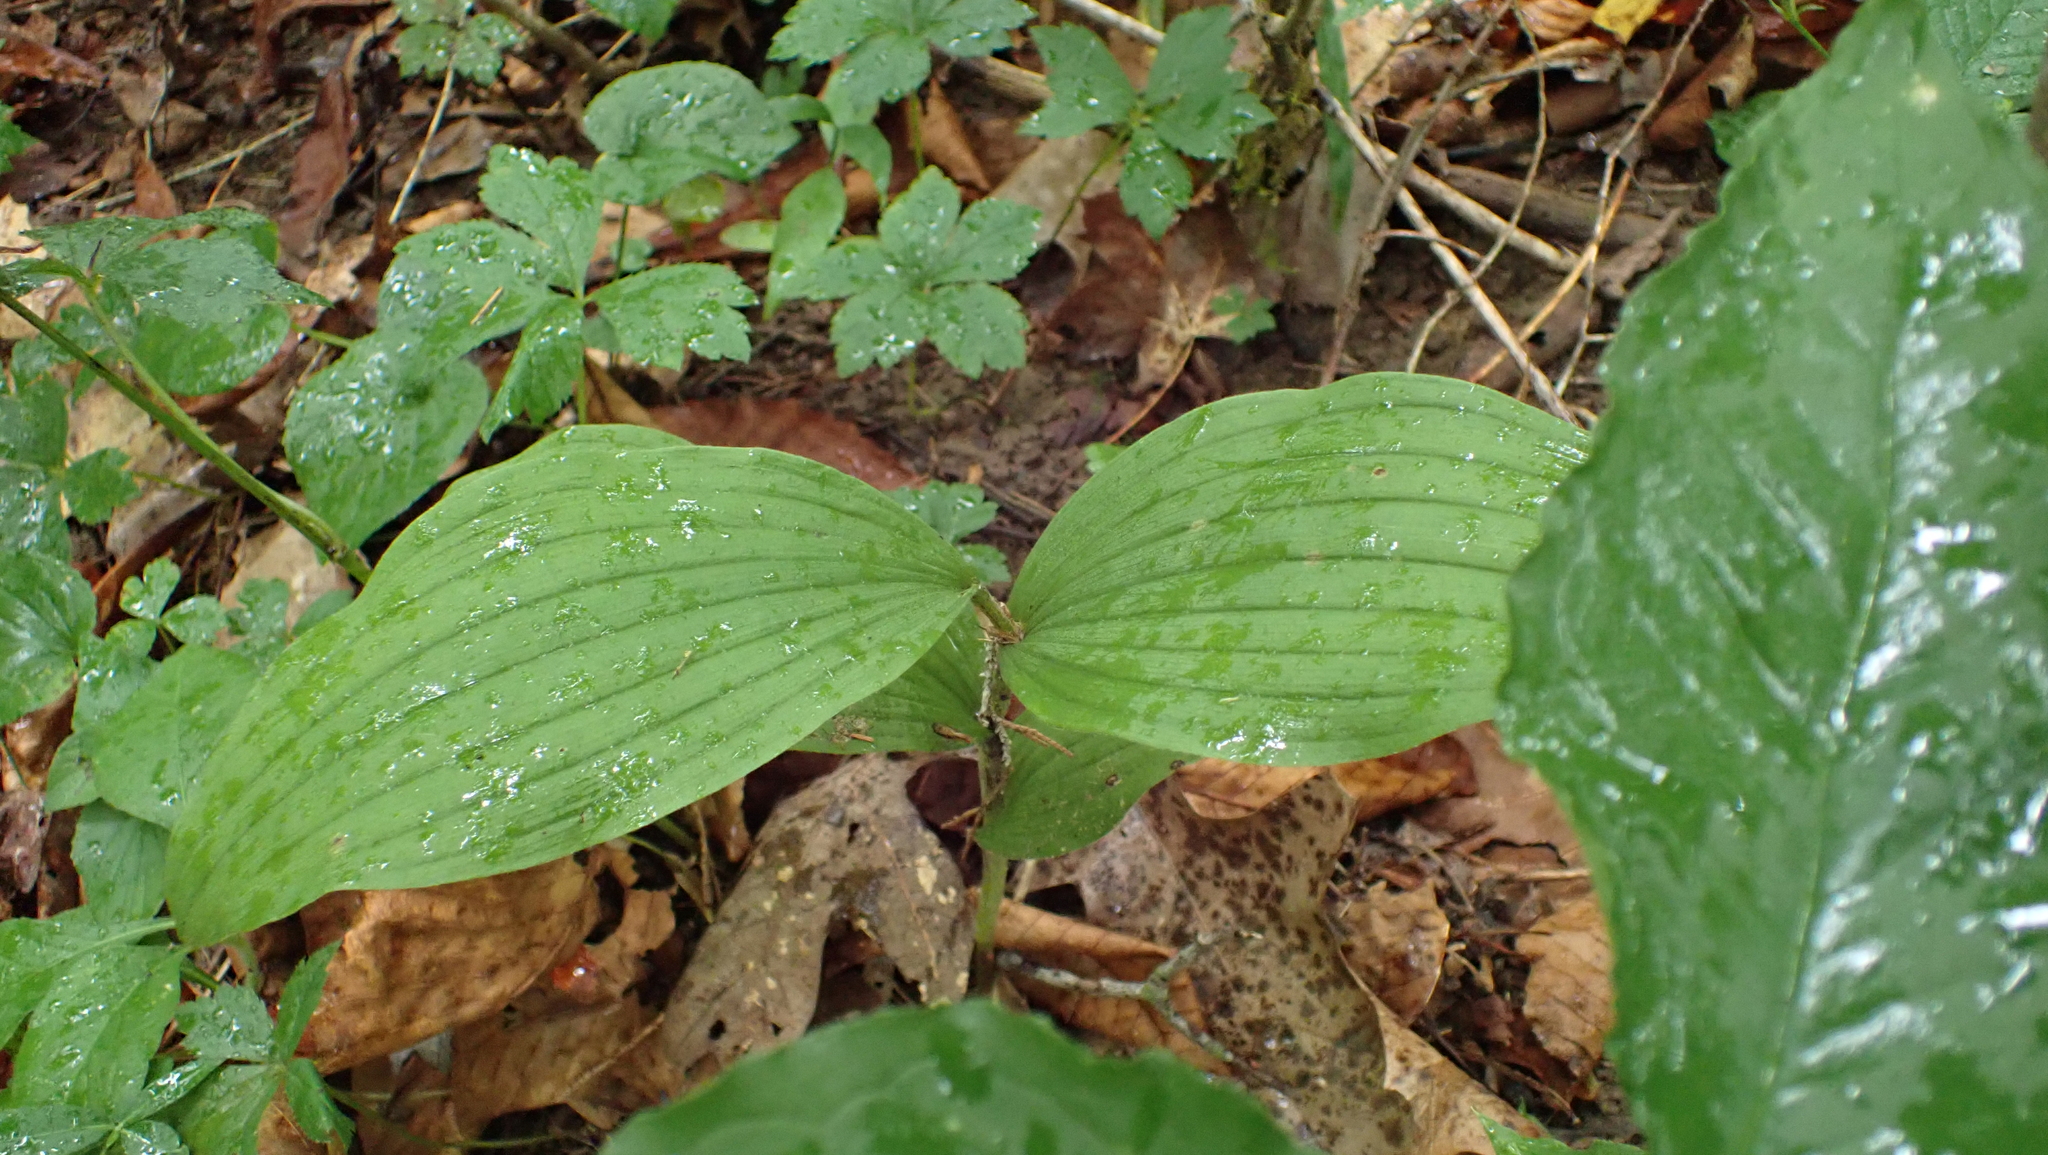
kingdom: Plantae
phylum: Tracheophyta
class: Liliopsida
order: Asparagales
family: Orchidaceae
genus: Cypripedium
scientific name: Cypripedium parviflorum
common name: American yellow lady's-slipper
